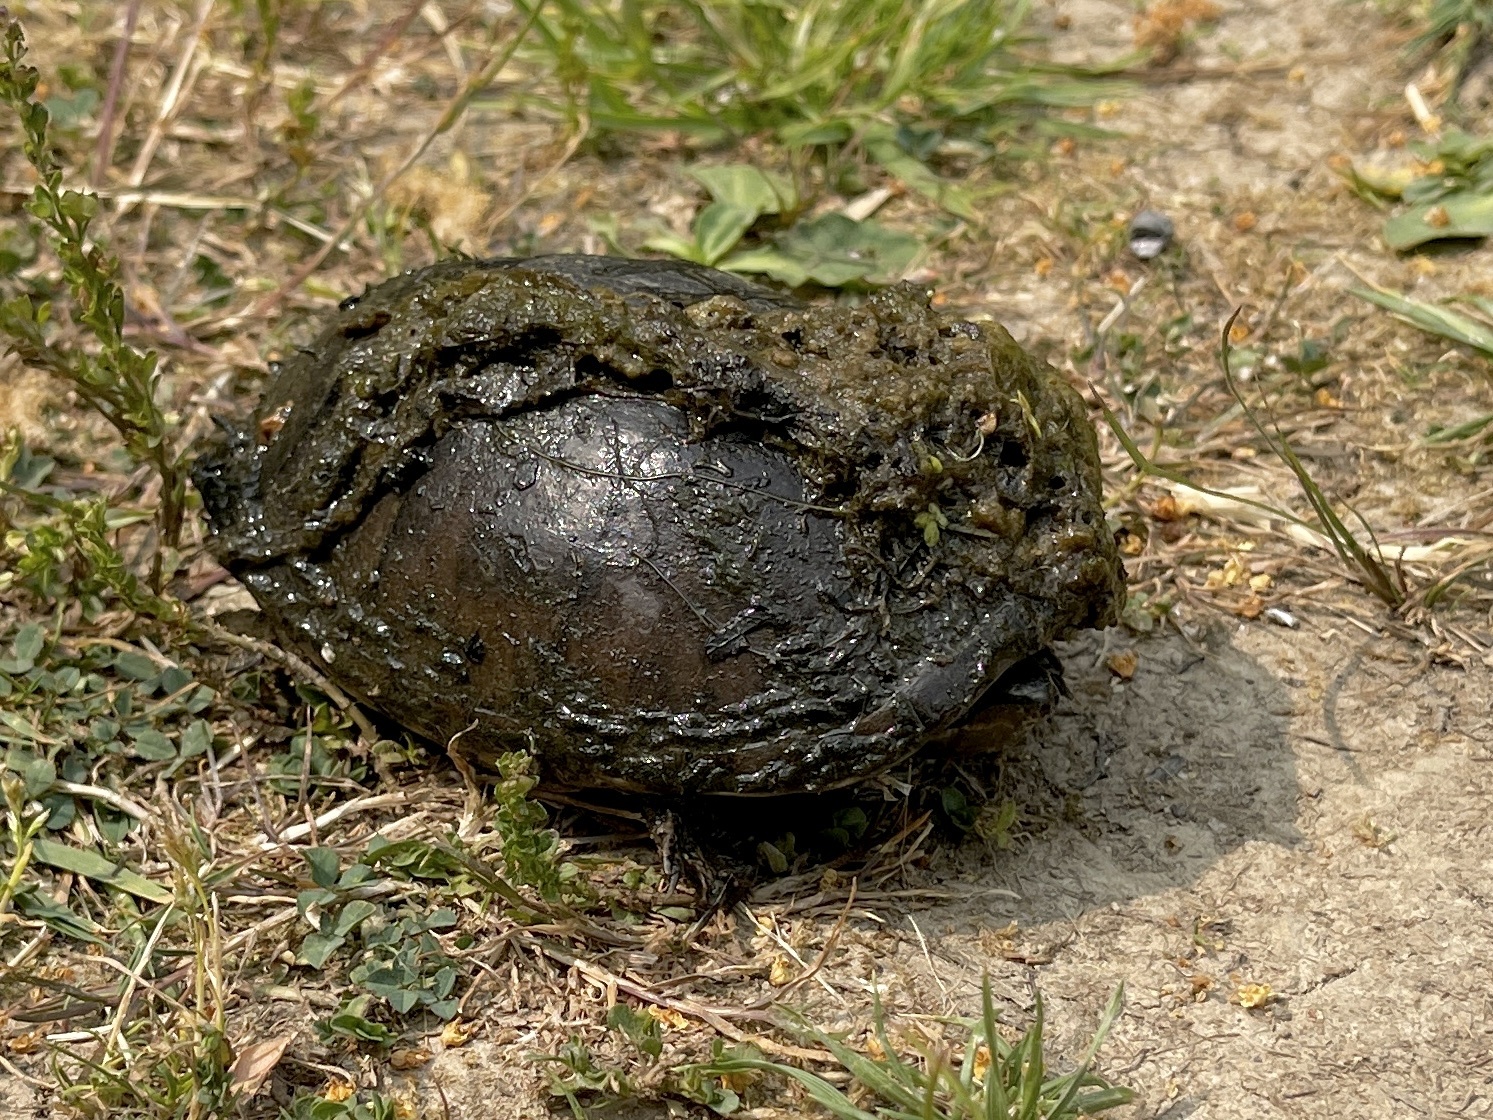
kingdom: Animalia
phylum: Chordata
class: Testudines
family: Kinosternidae
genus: Sternotherus
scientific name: Sternotherus odoratus
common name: Common musk turtle
